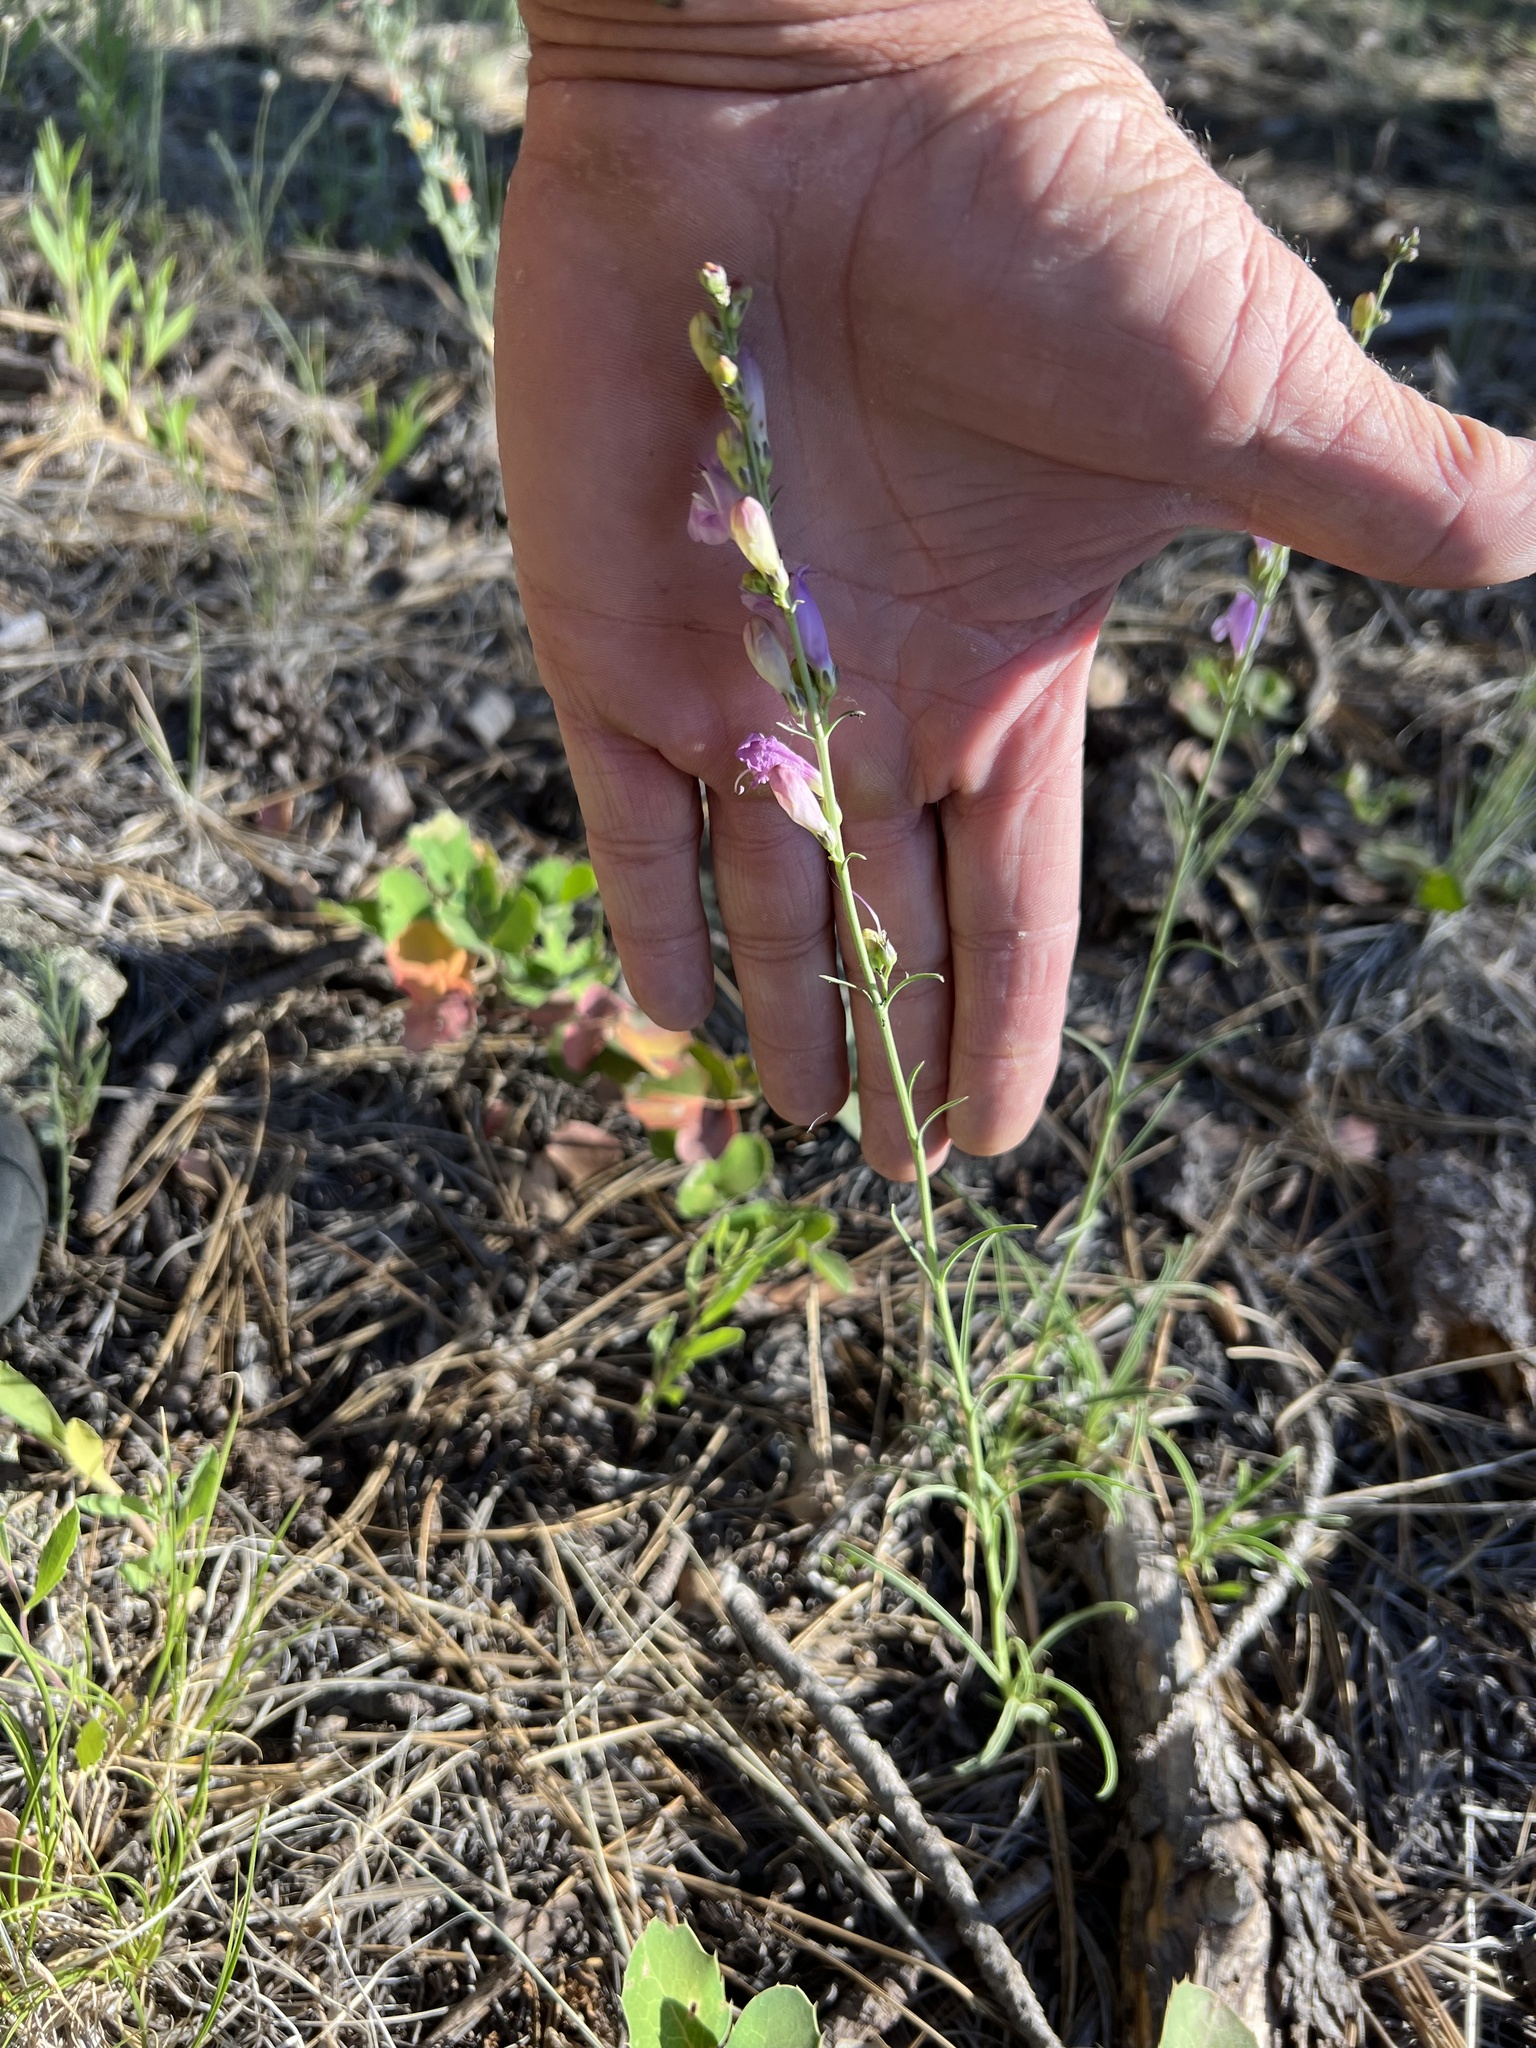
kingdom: Plantae
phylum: Tracheophyta
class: Magnoliopsida
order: Lamiales
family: Plantaginaceae
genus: Penstemon
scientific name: Penstemon linarioides
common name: Siler's penstemon
